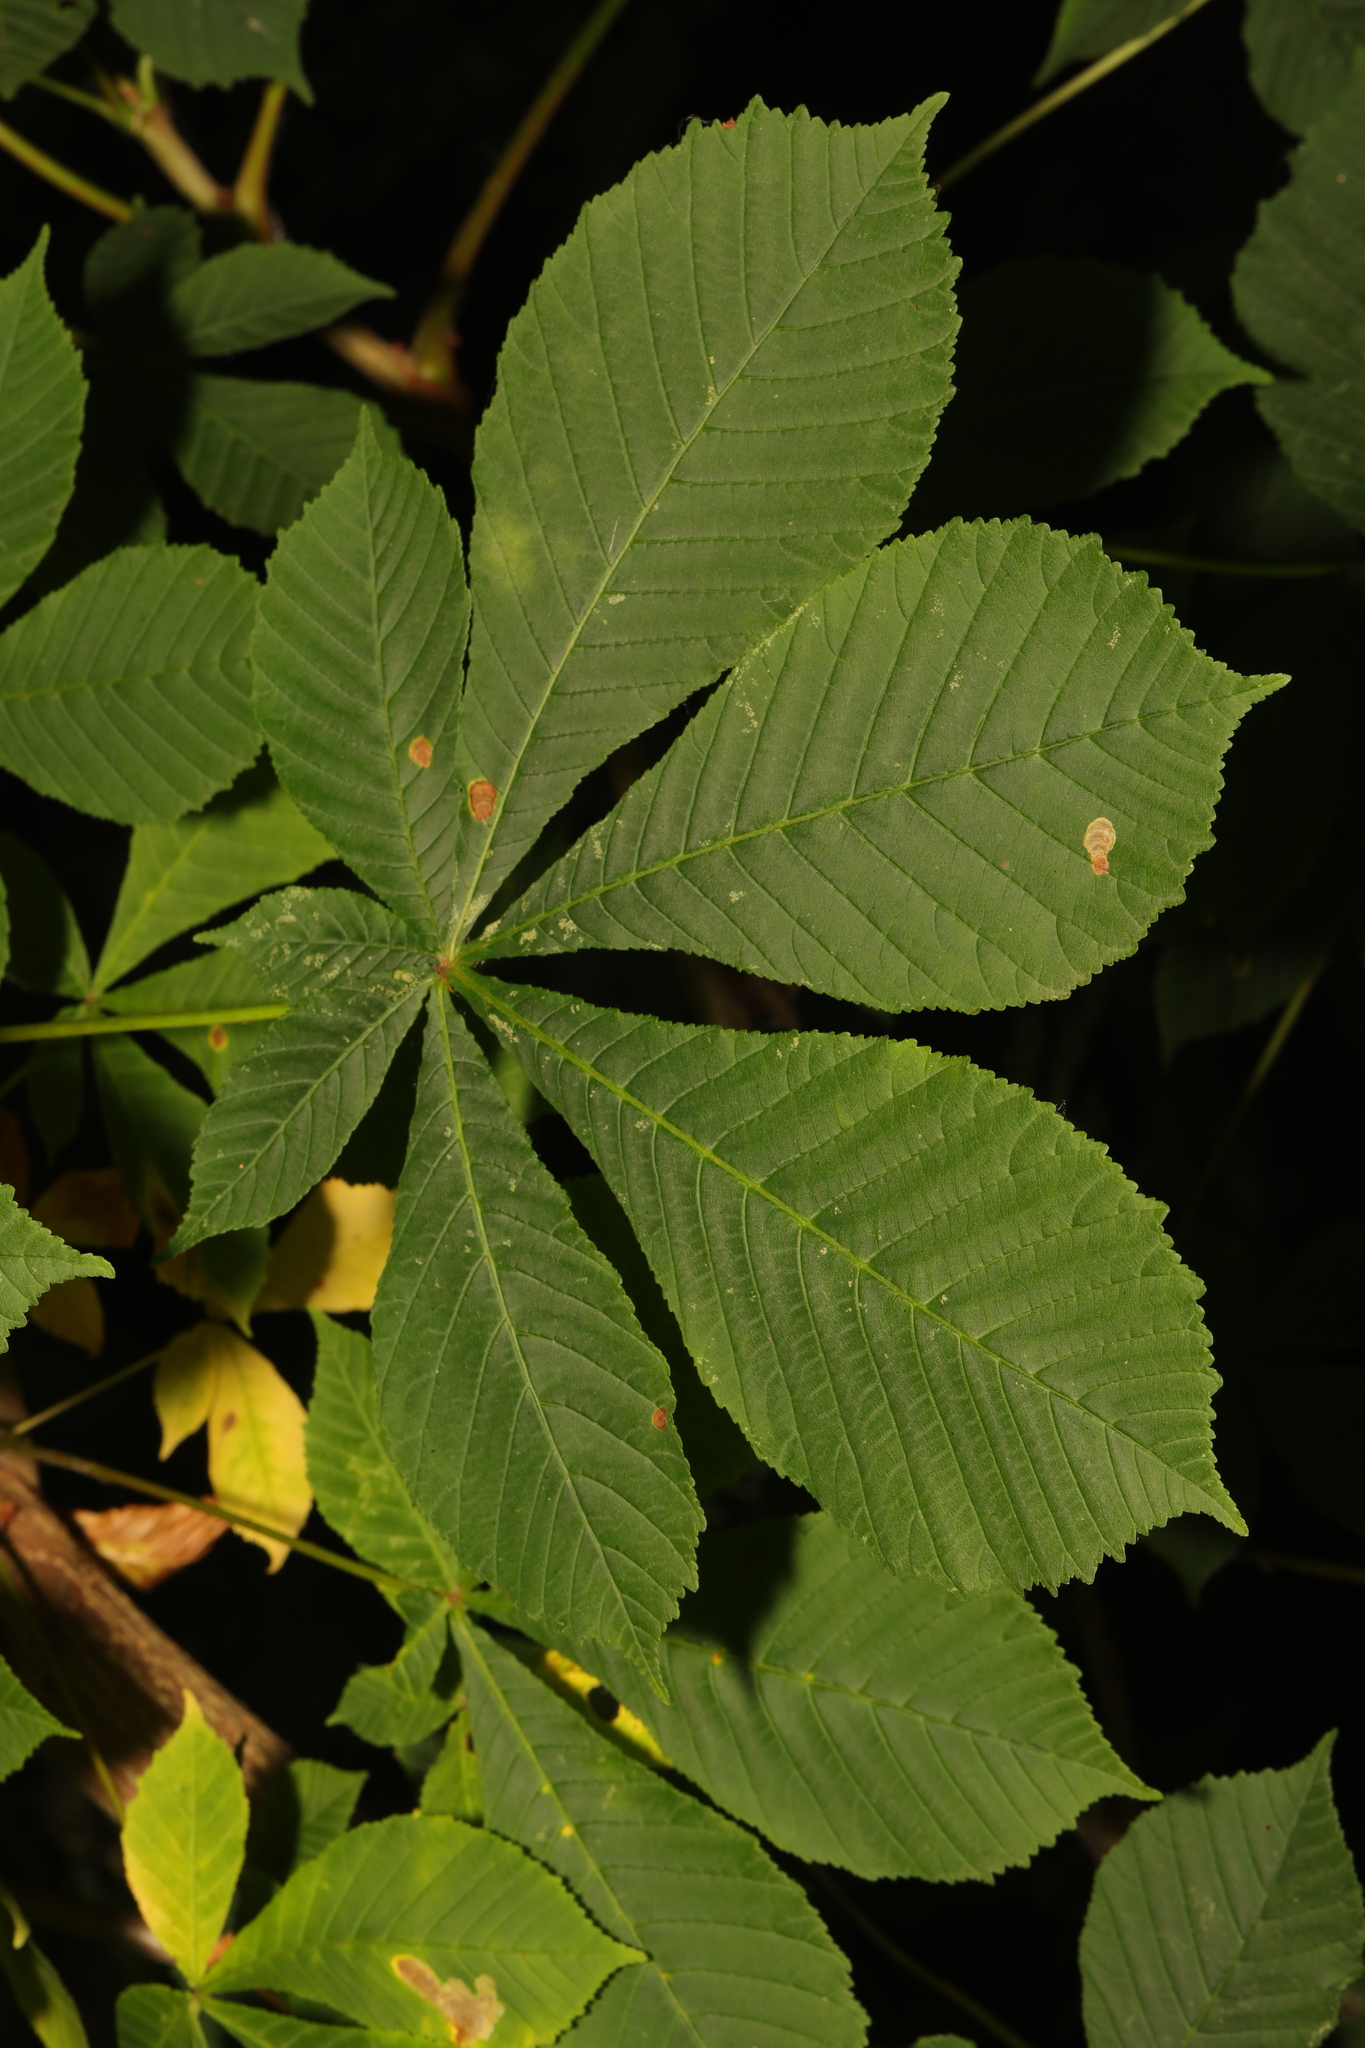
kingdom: Plantae
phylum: Tracheophyta
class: Magnoliopsida
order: Sapindales
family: Sapindaceae
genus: Aesculus
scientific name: Aesculus hippocastanum
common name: Horse-chestnut
